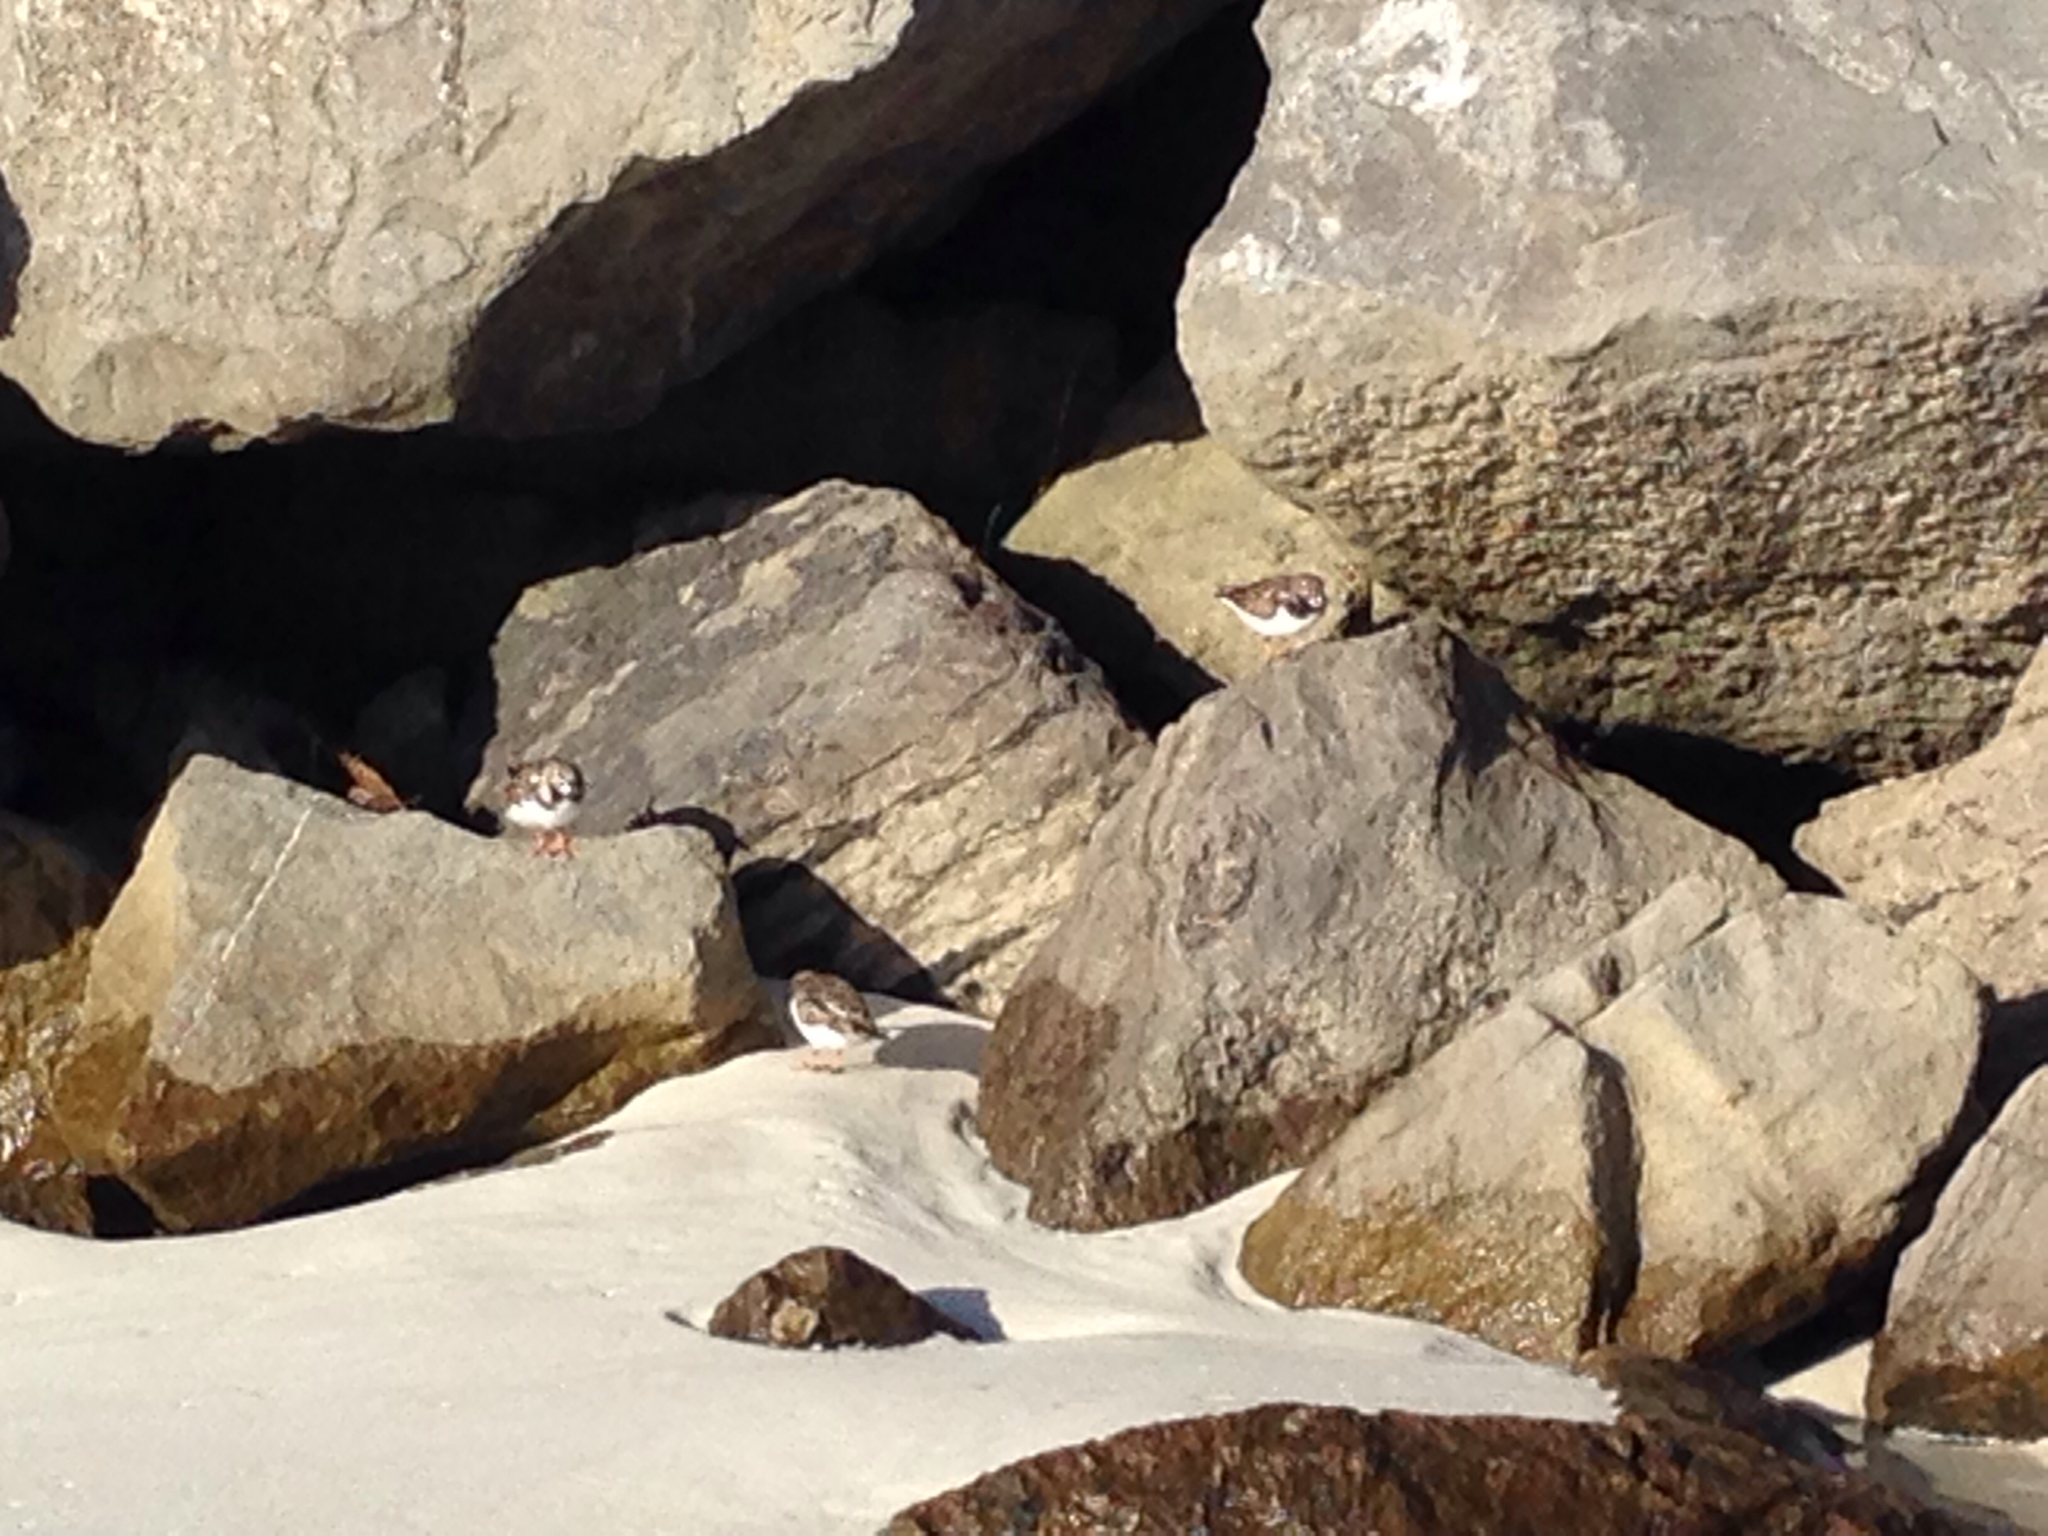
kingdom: Animalia
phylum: Chordata
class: Aves
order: Charadriiformes
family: Scolopacidae
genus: Arenaria
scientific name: Arenaria interpres
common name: Ruddy turnstone
